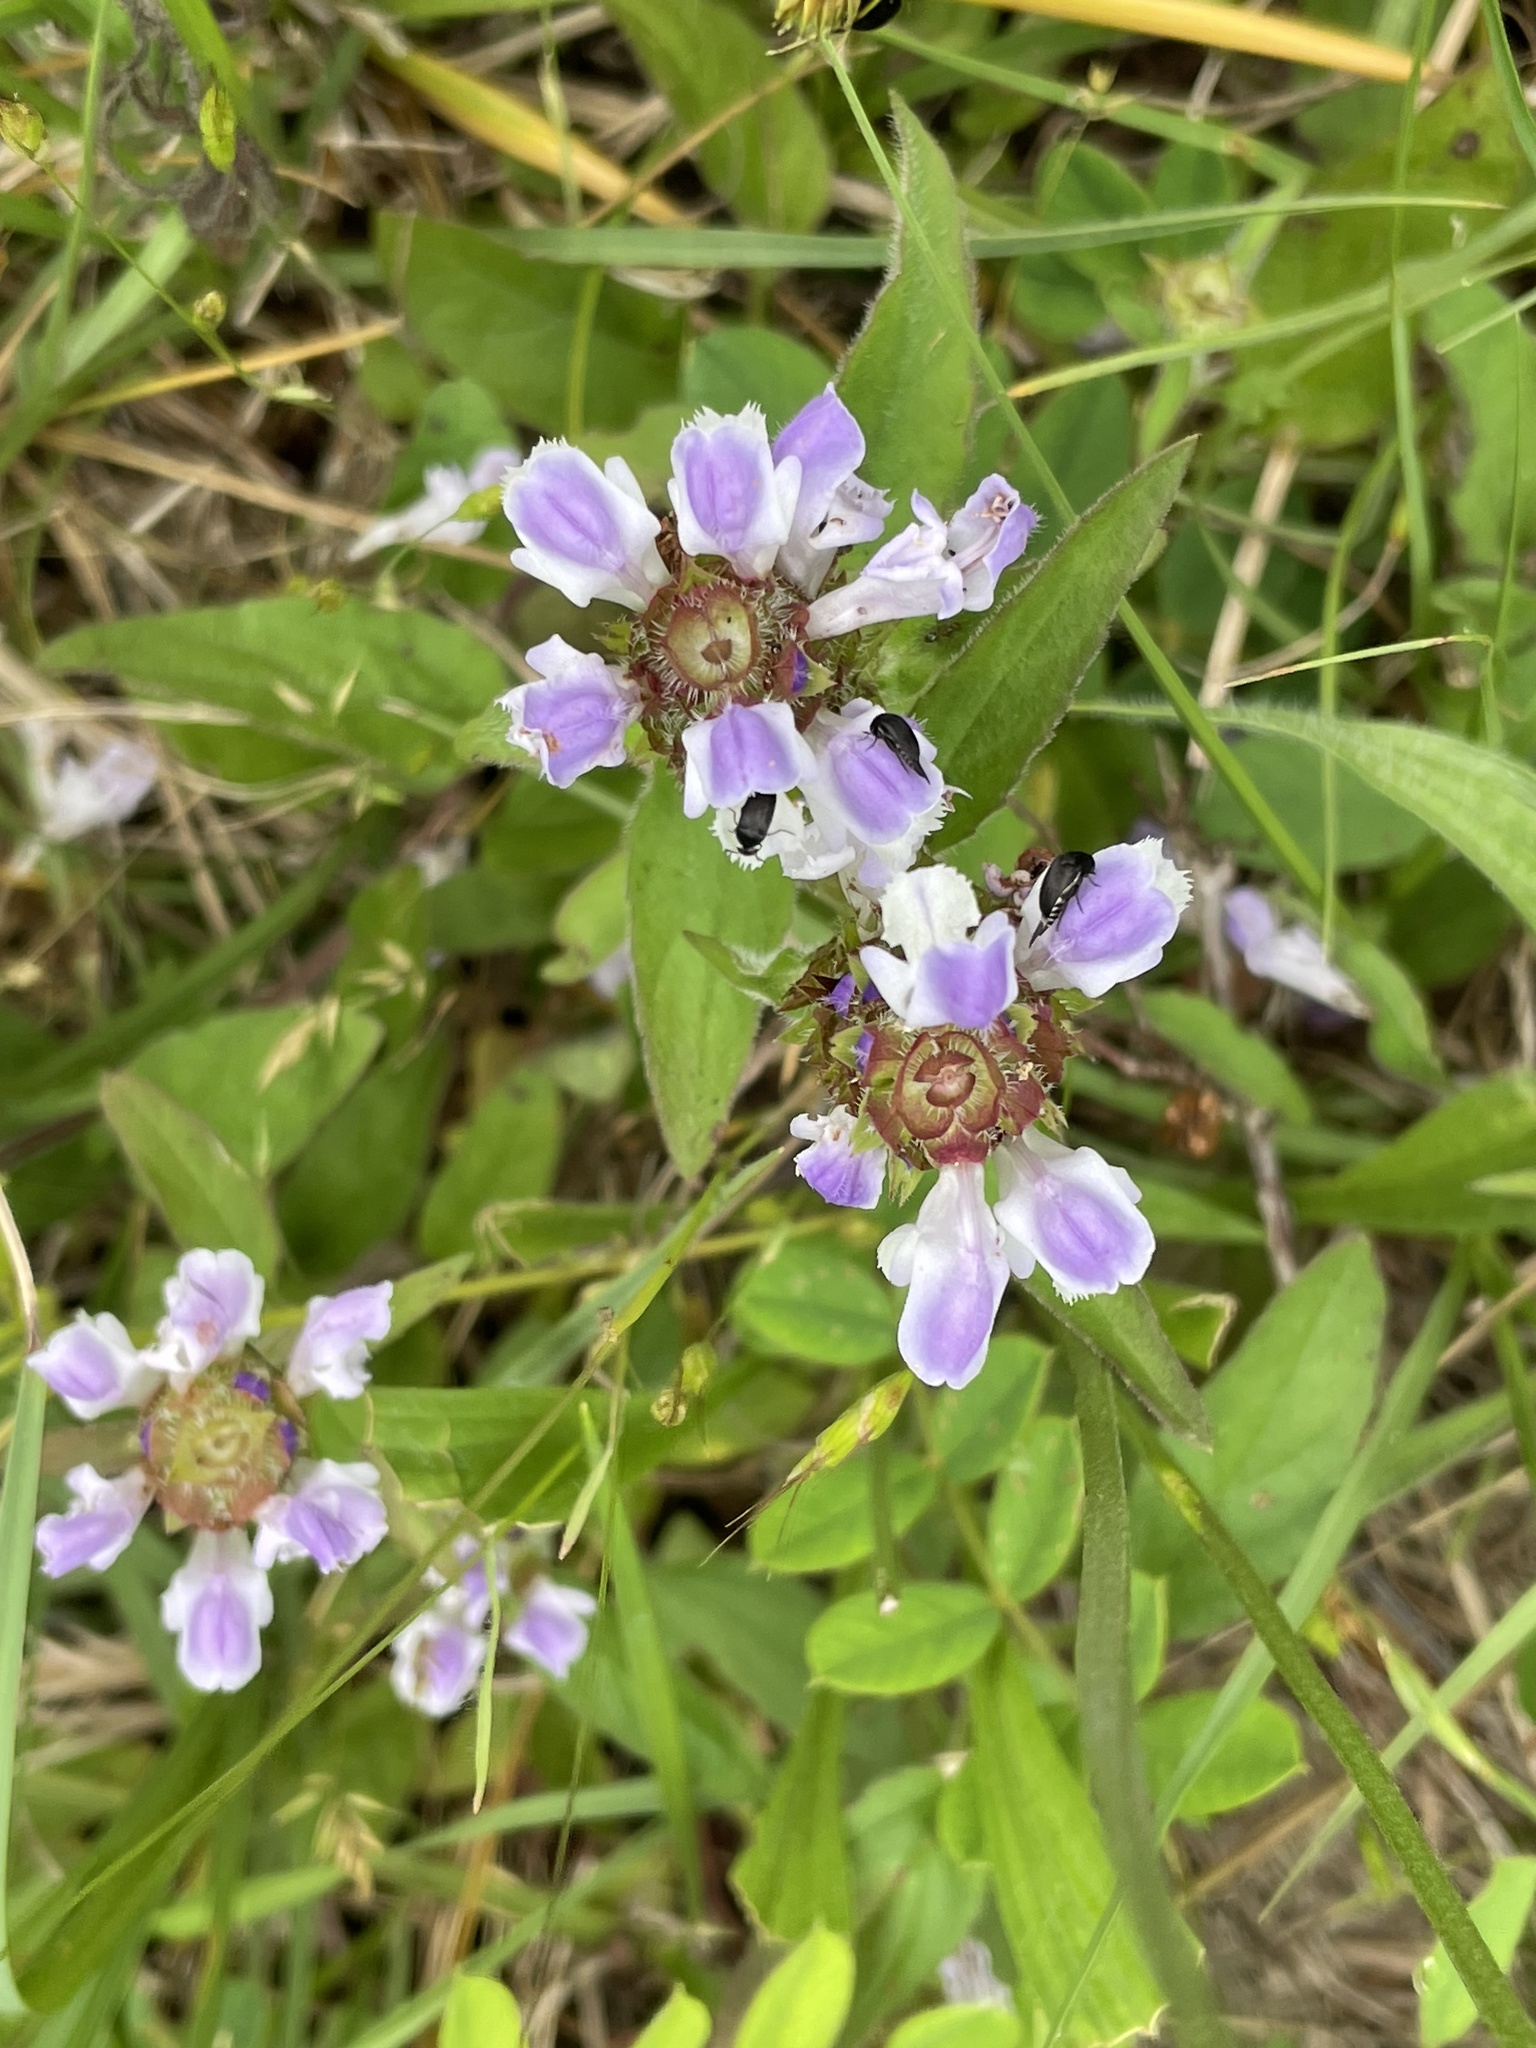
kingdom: Plantae
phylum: Tracheophyta
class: Magnoliopsida
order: Lamiales
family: Lamiaceae
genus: Prunella
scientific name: Prunella vulgaris
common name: Heal-all
